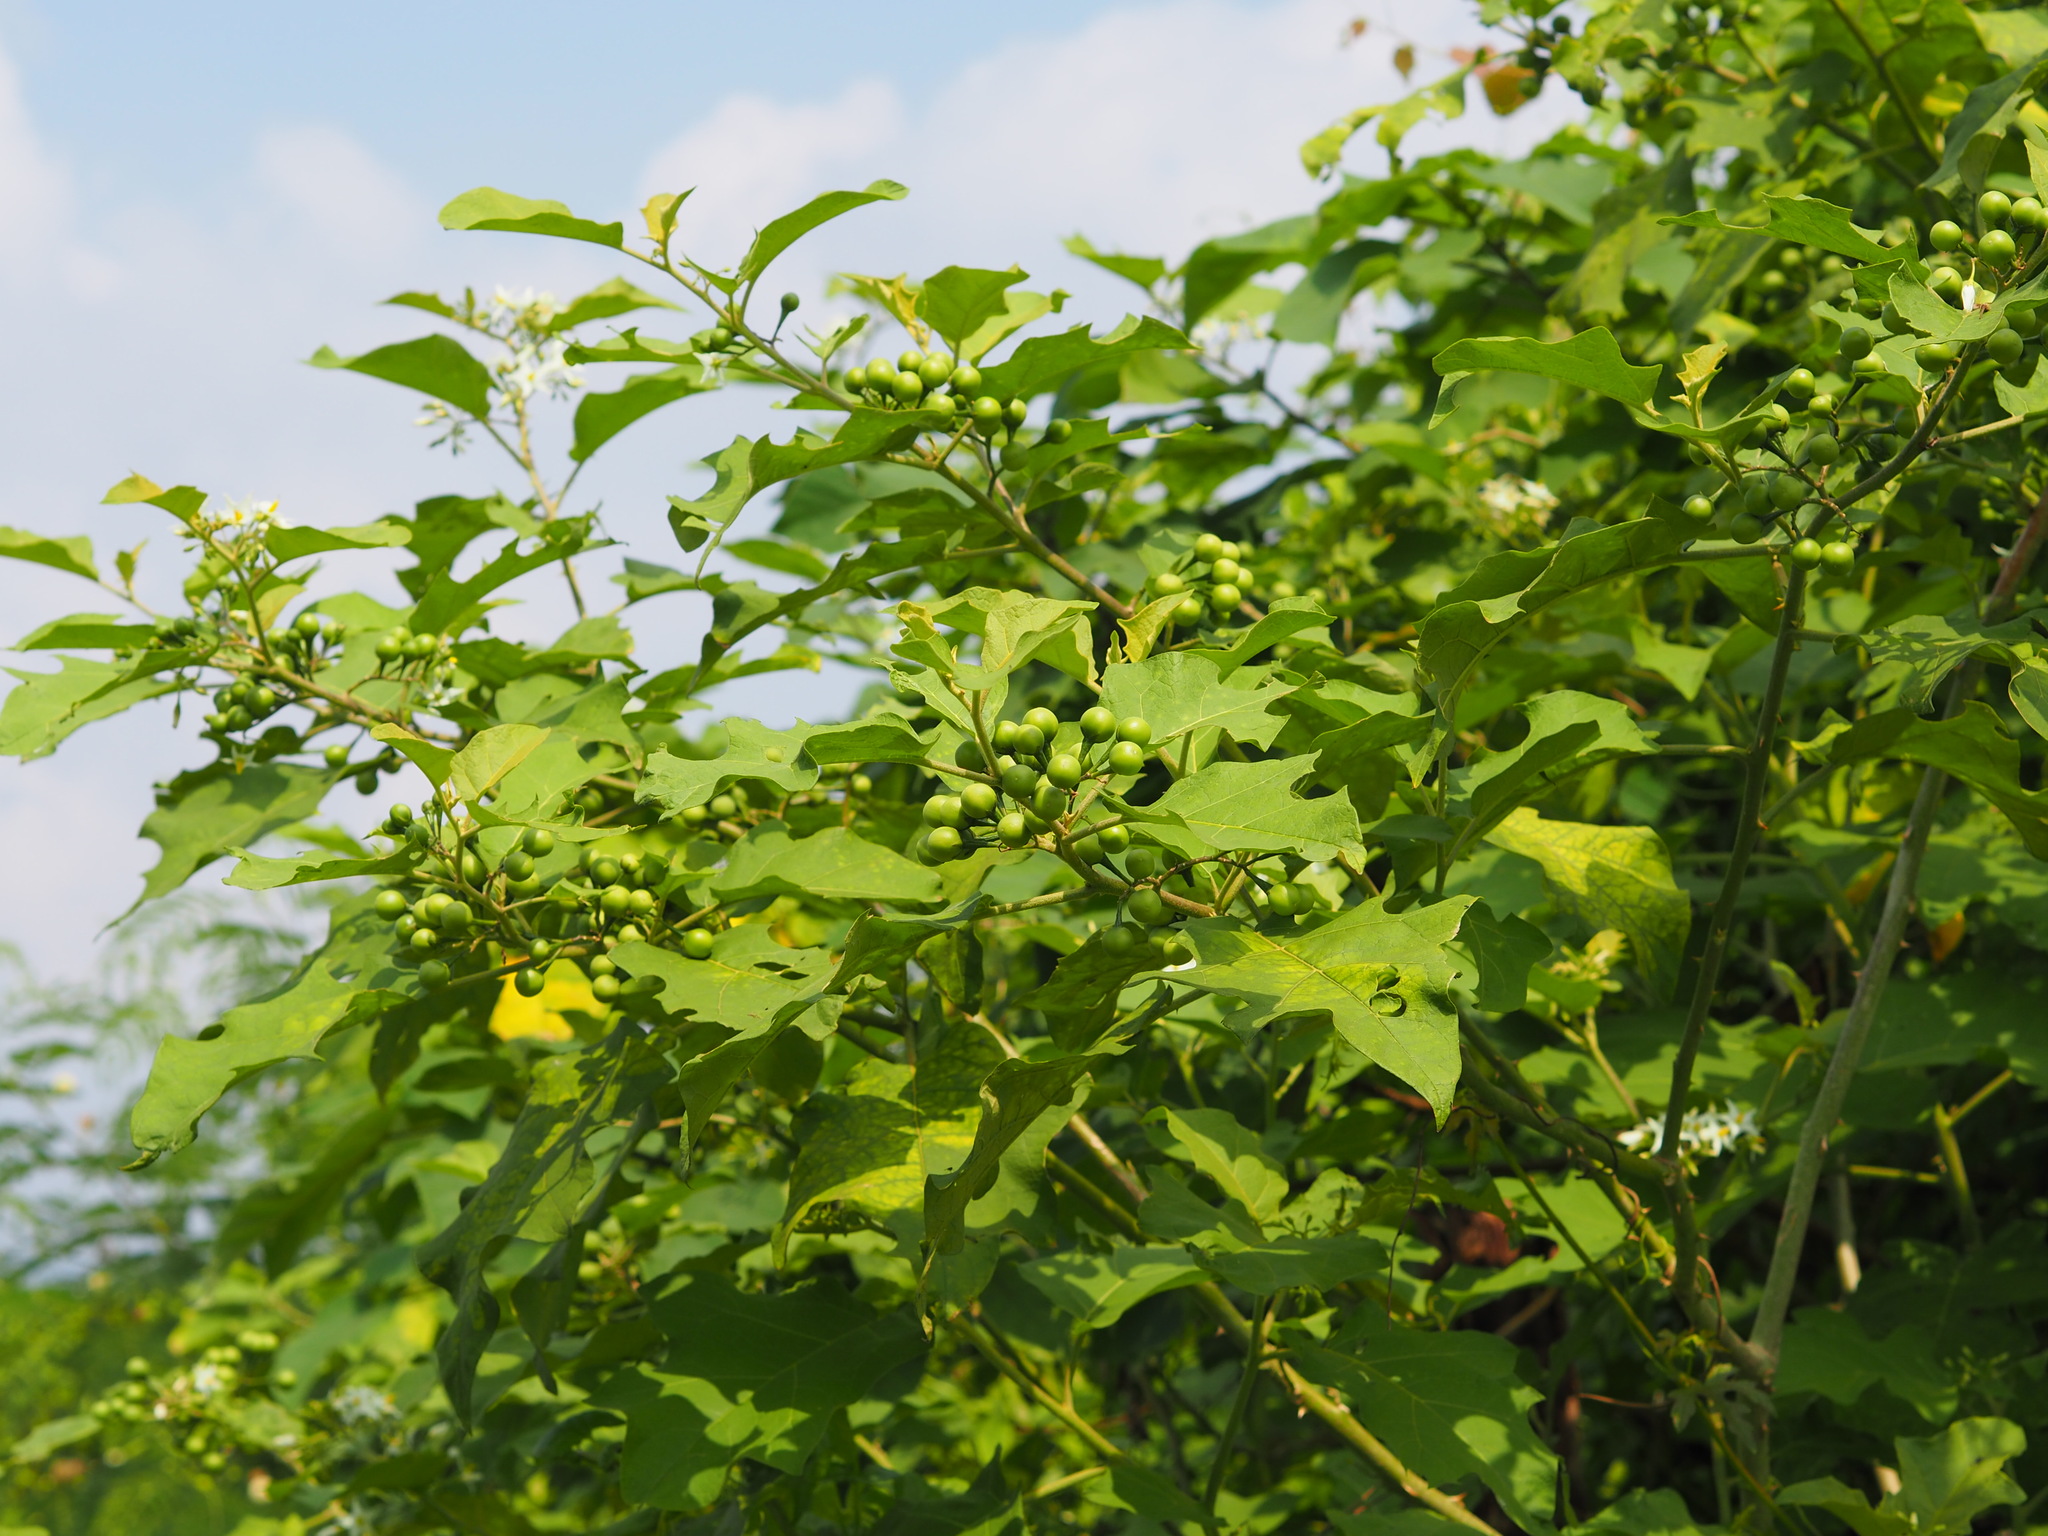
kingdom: Plantae
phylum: Tracheophyta
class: Magnoliopsida
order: Solanales
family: Solanaceae
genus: Solanum
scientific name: Solanum torvum
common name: Turkey berry
